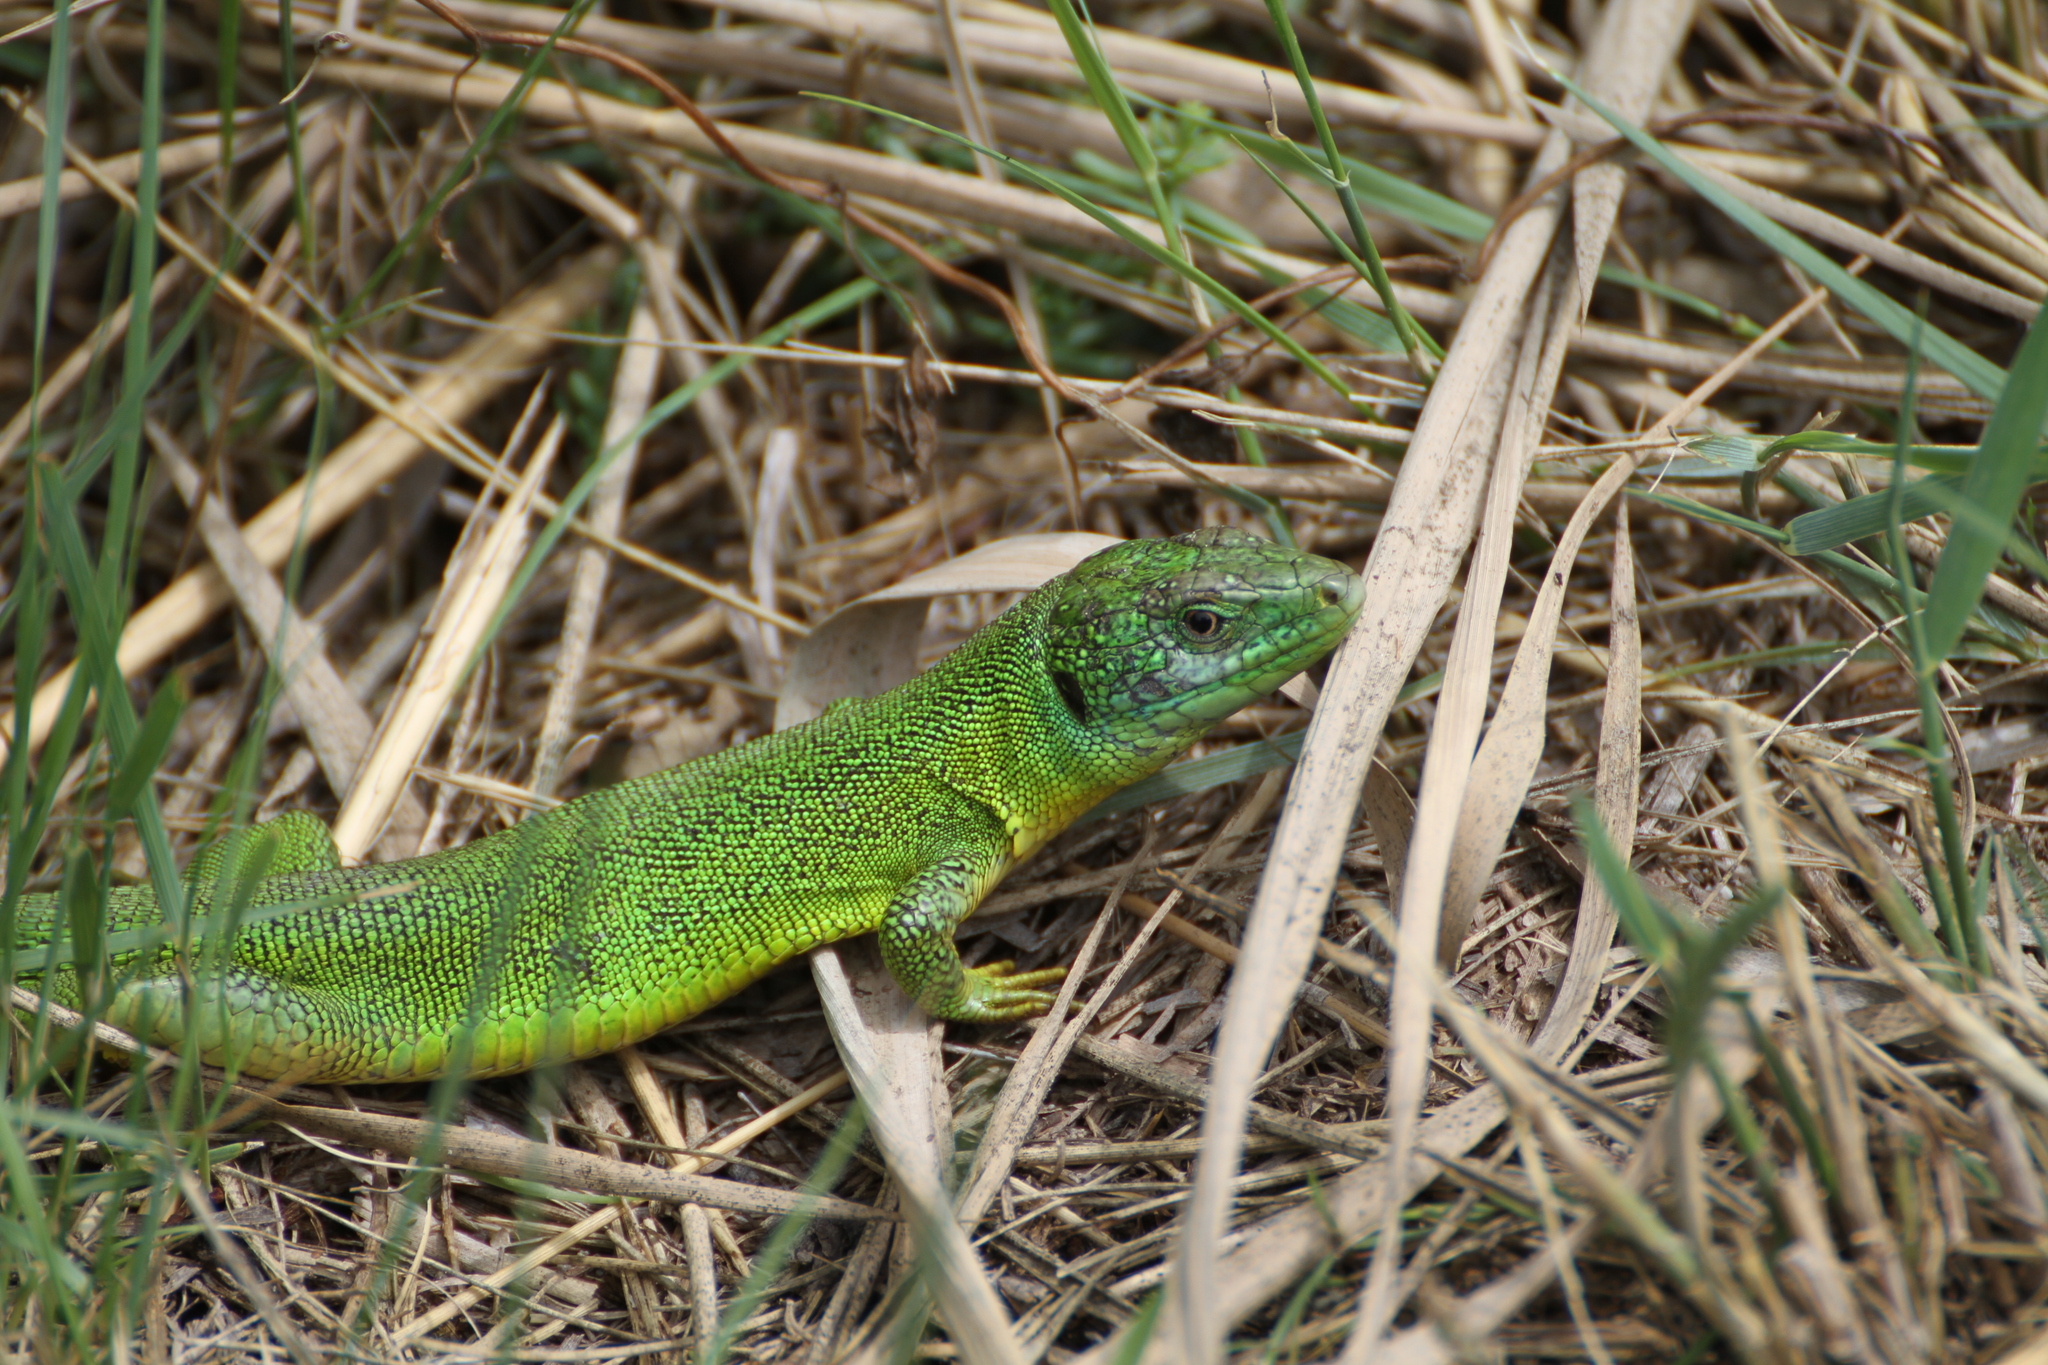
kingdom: Animalia
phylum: Chordata
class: Squamata
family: Lacertidae
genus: Lacerta
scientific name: Lacerta bilineata
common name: Western green lizard
